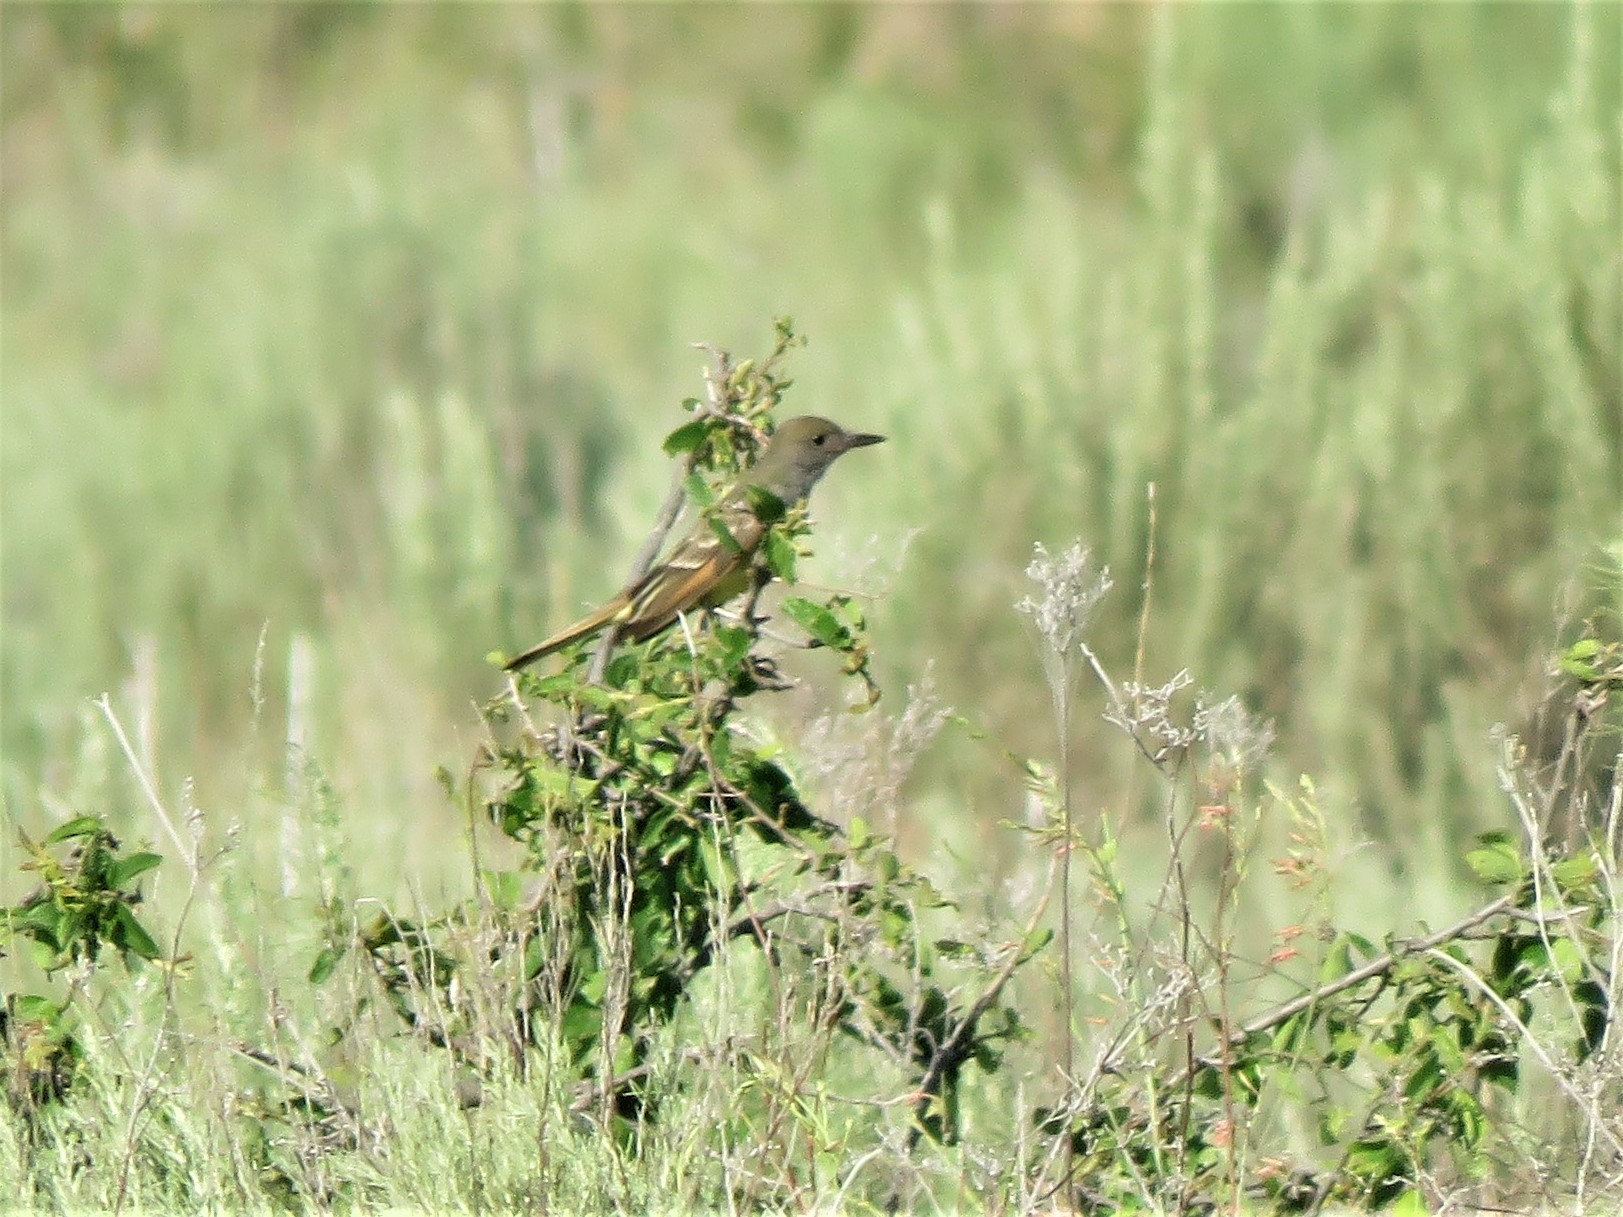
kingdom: Animalia
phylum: Chordata
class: Aves
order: Passeriformes
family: Tyrannidae
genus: Myiarchus
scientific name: Myiarchus crinitus
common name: Great crested flycatcher
